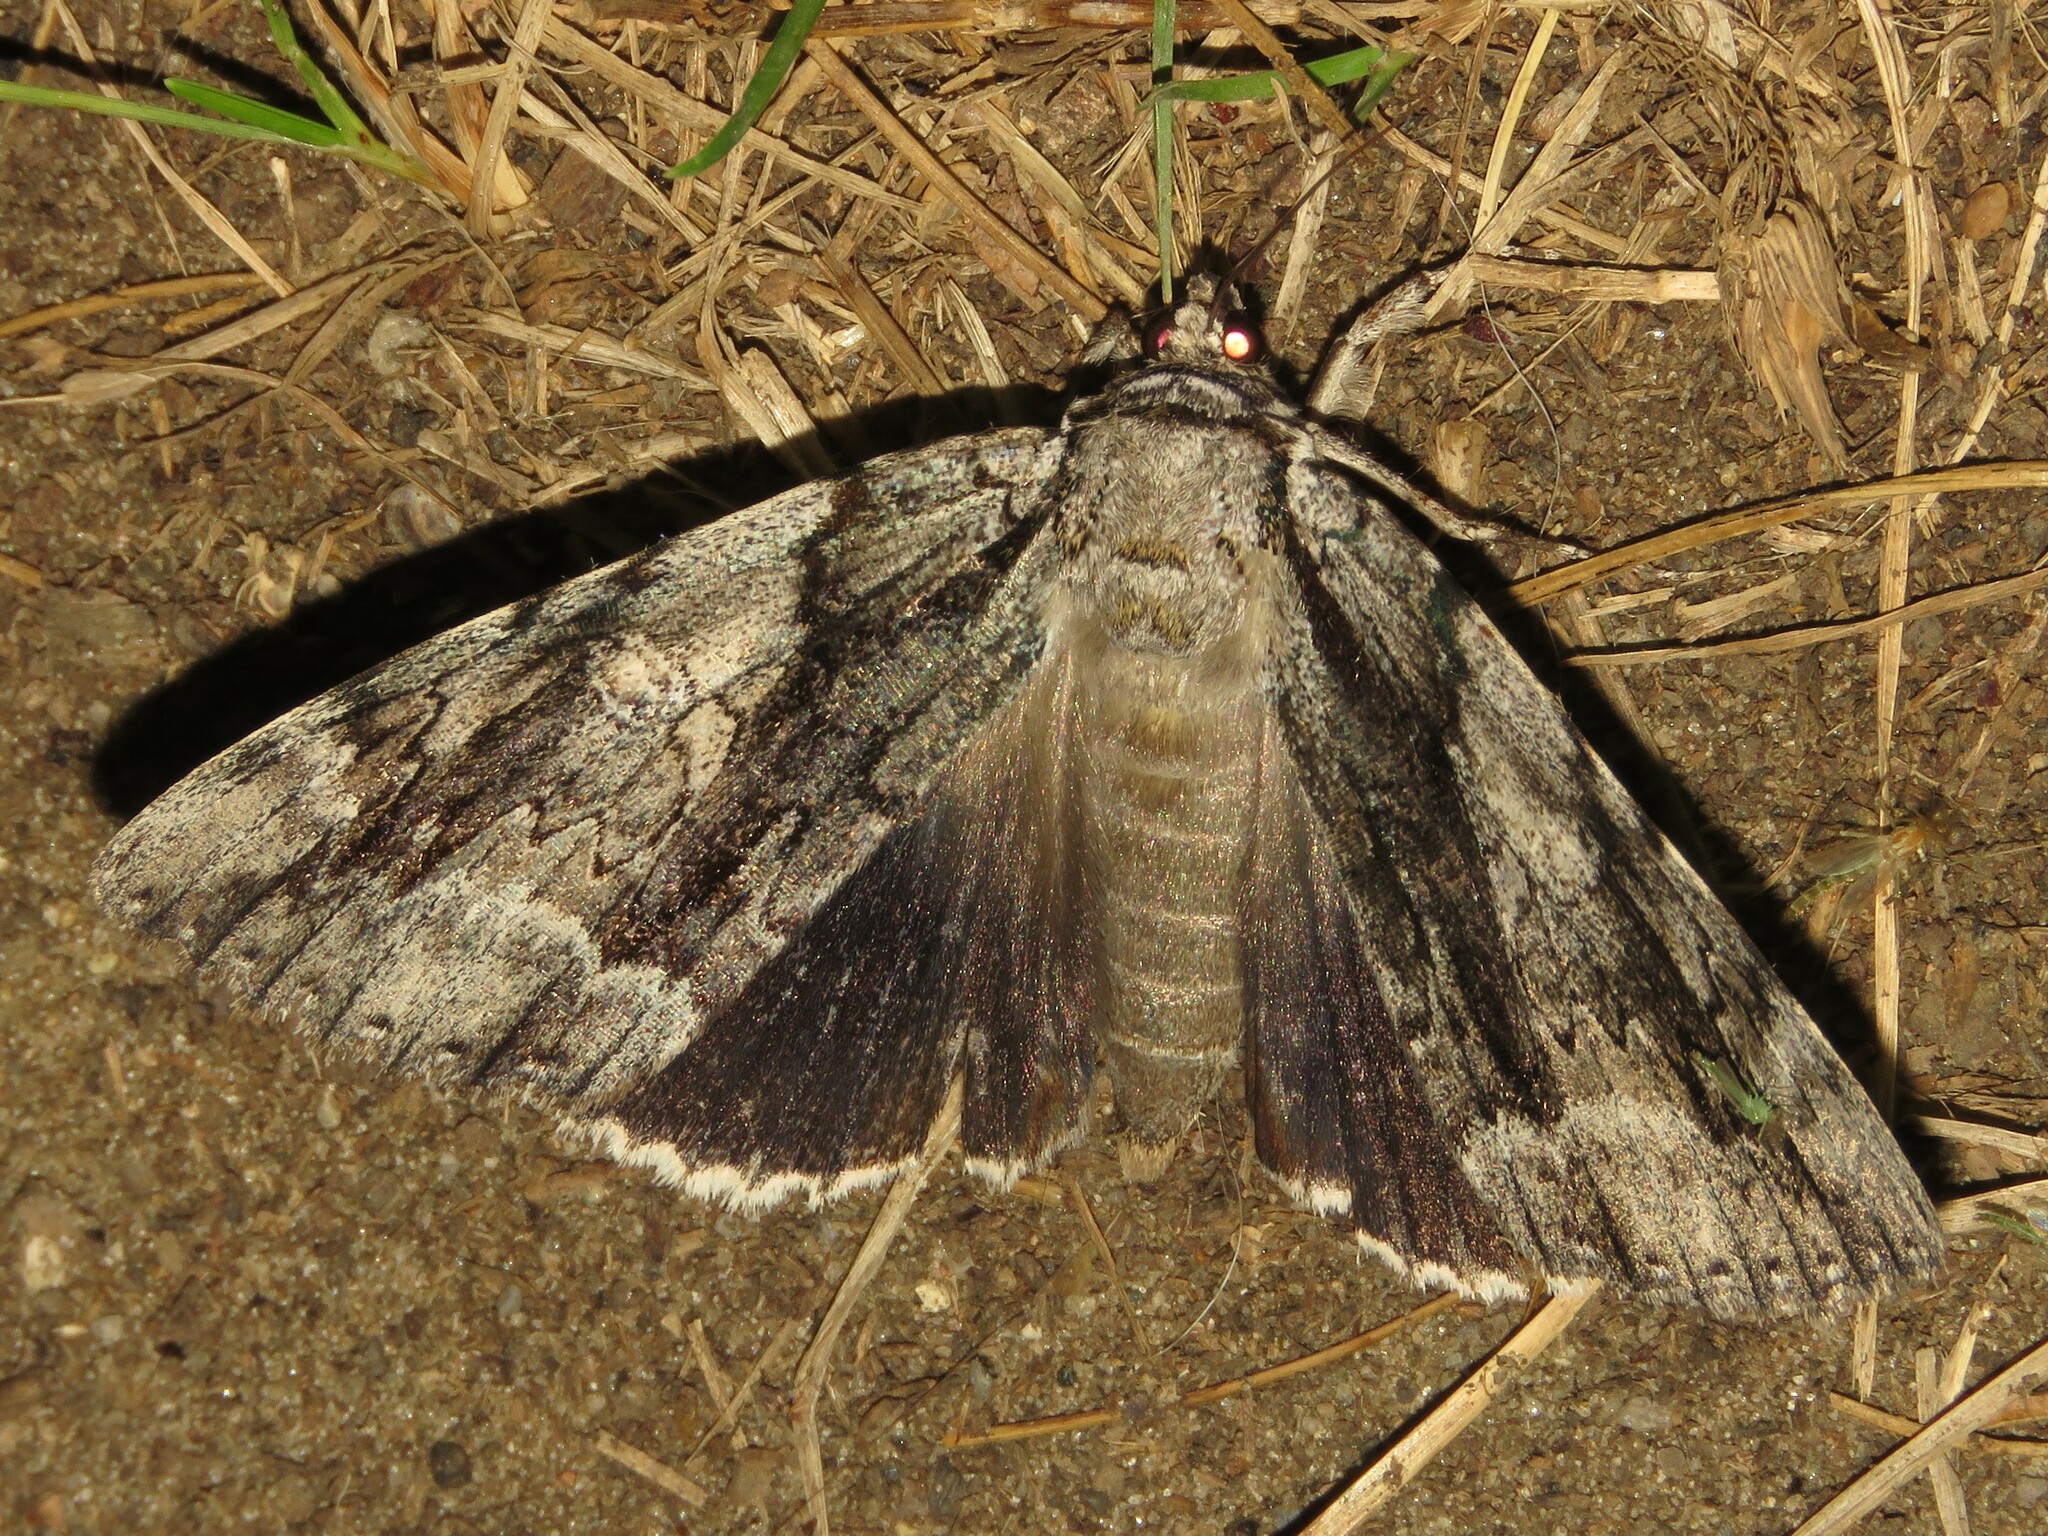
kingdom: Animalia
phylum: Arthropoda
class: Insecta
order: Lepidoptera
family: Erebidae
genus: Catocala
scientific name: Catocala vidua
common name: The widow
